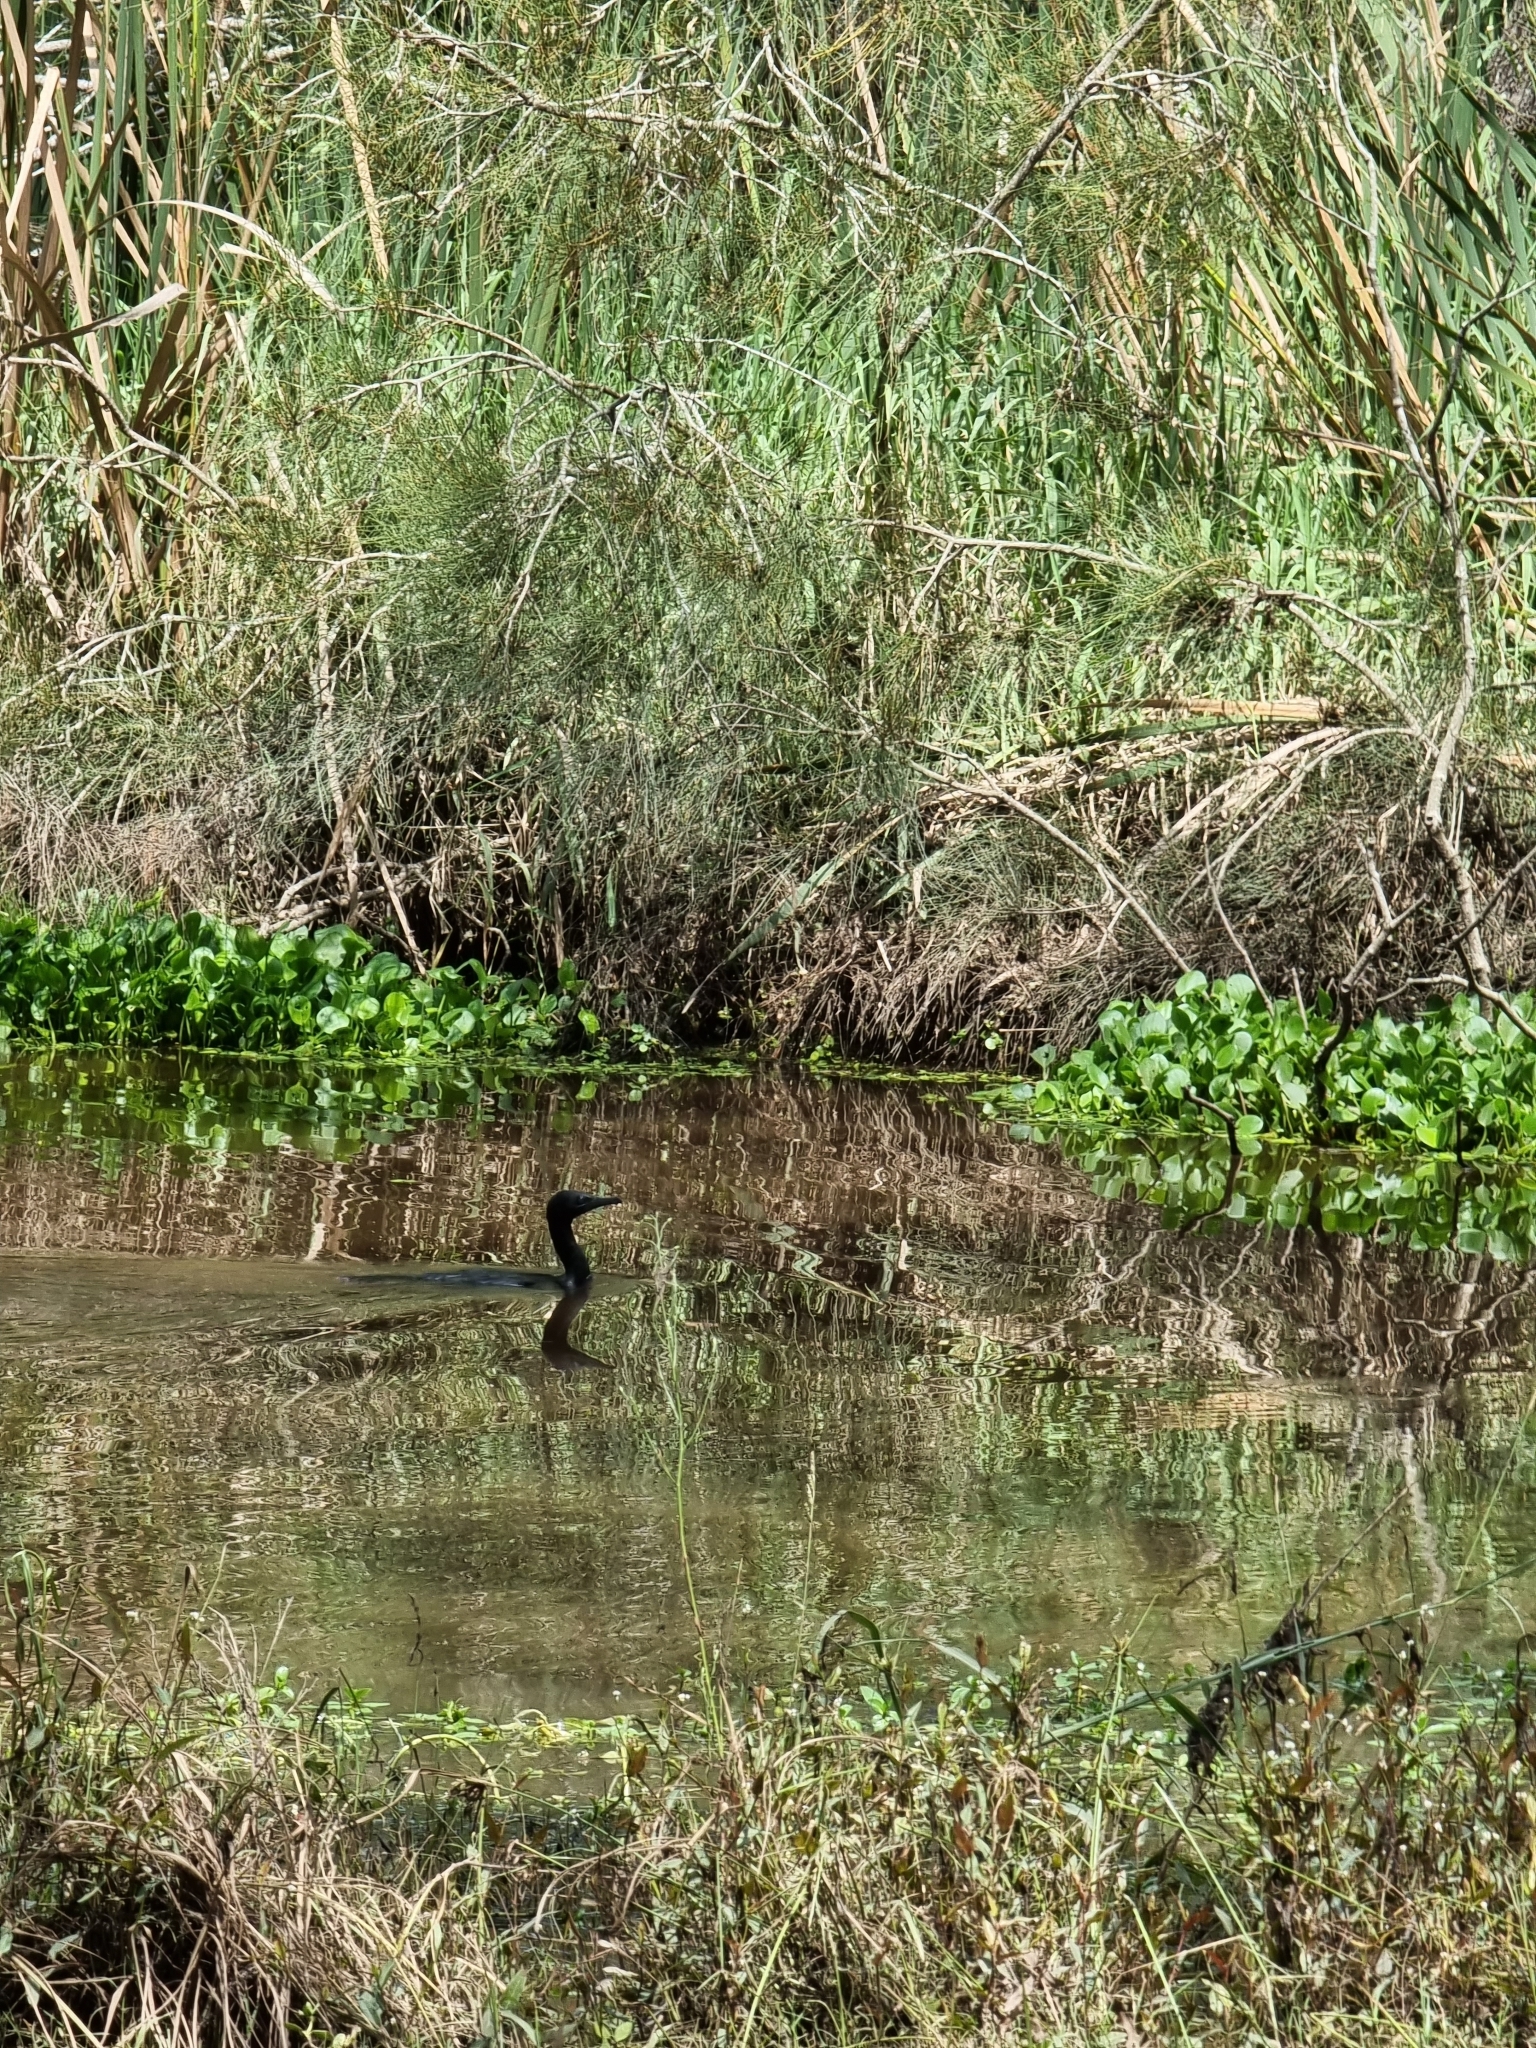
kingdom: Animalia
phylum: Chordata
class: Aves
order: Suliformes
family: Phalacrocoracidae
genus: Phalacrocorax
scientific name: Phalacrocorax sulcirostris
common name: Little black cormorant
